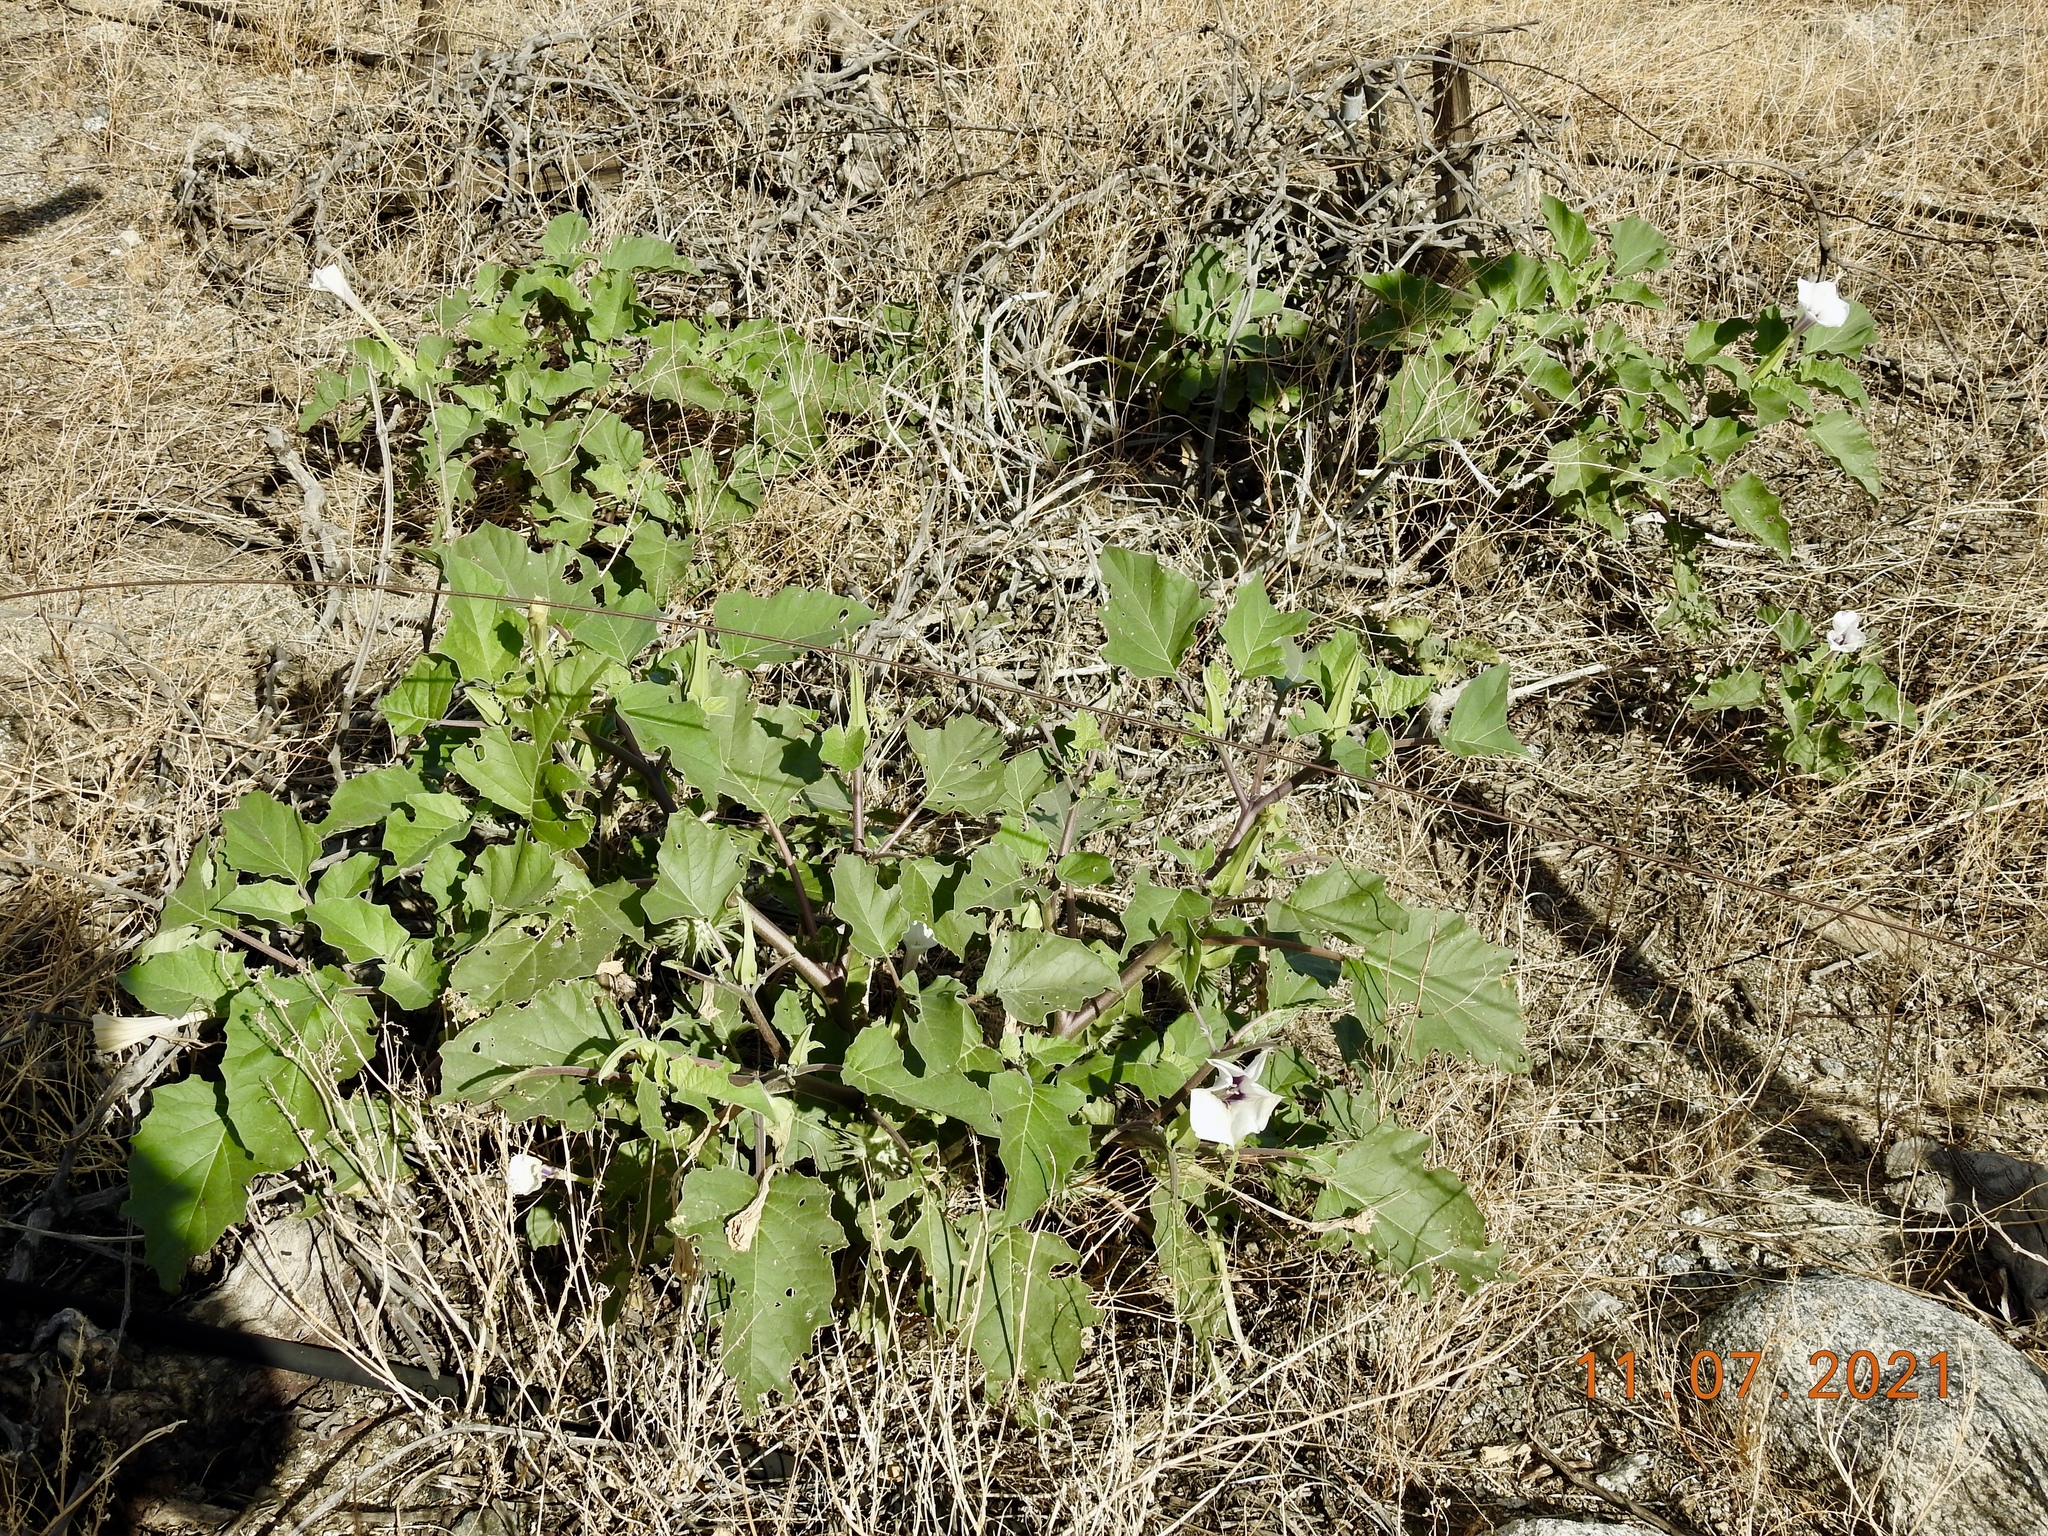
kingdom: Plantae
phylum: Tracheophyta
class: Magnoliopsida
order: Solanales
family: Solanaceae
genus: Datura
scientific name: Datura discolor
